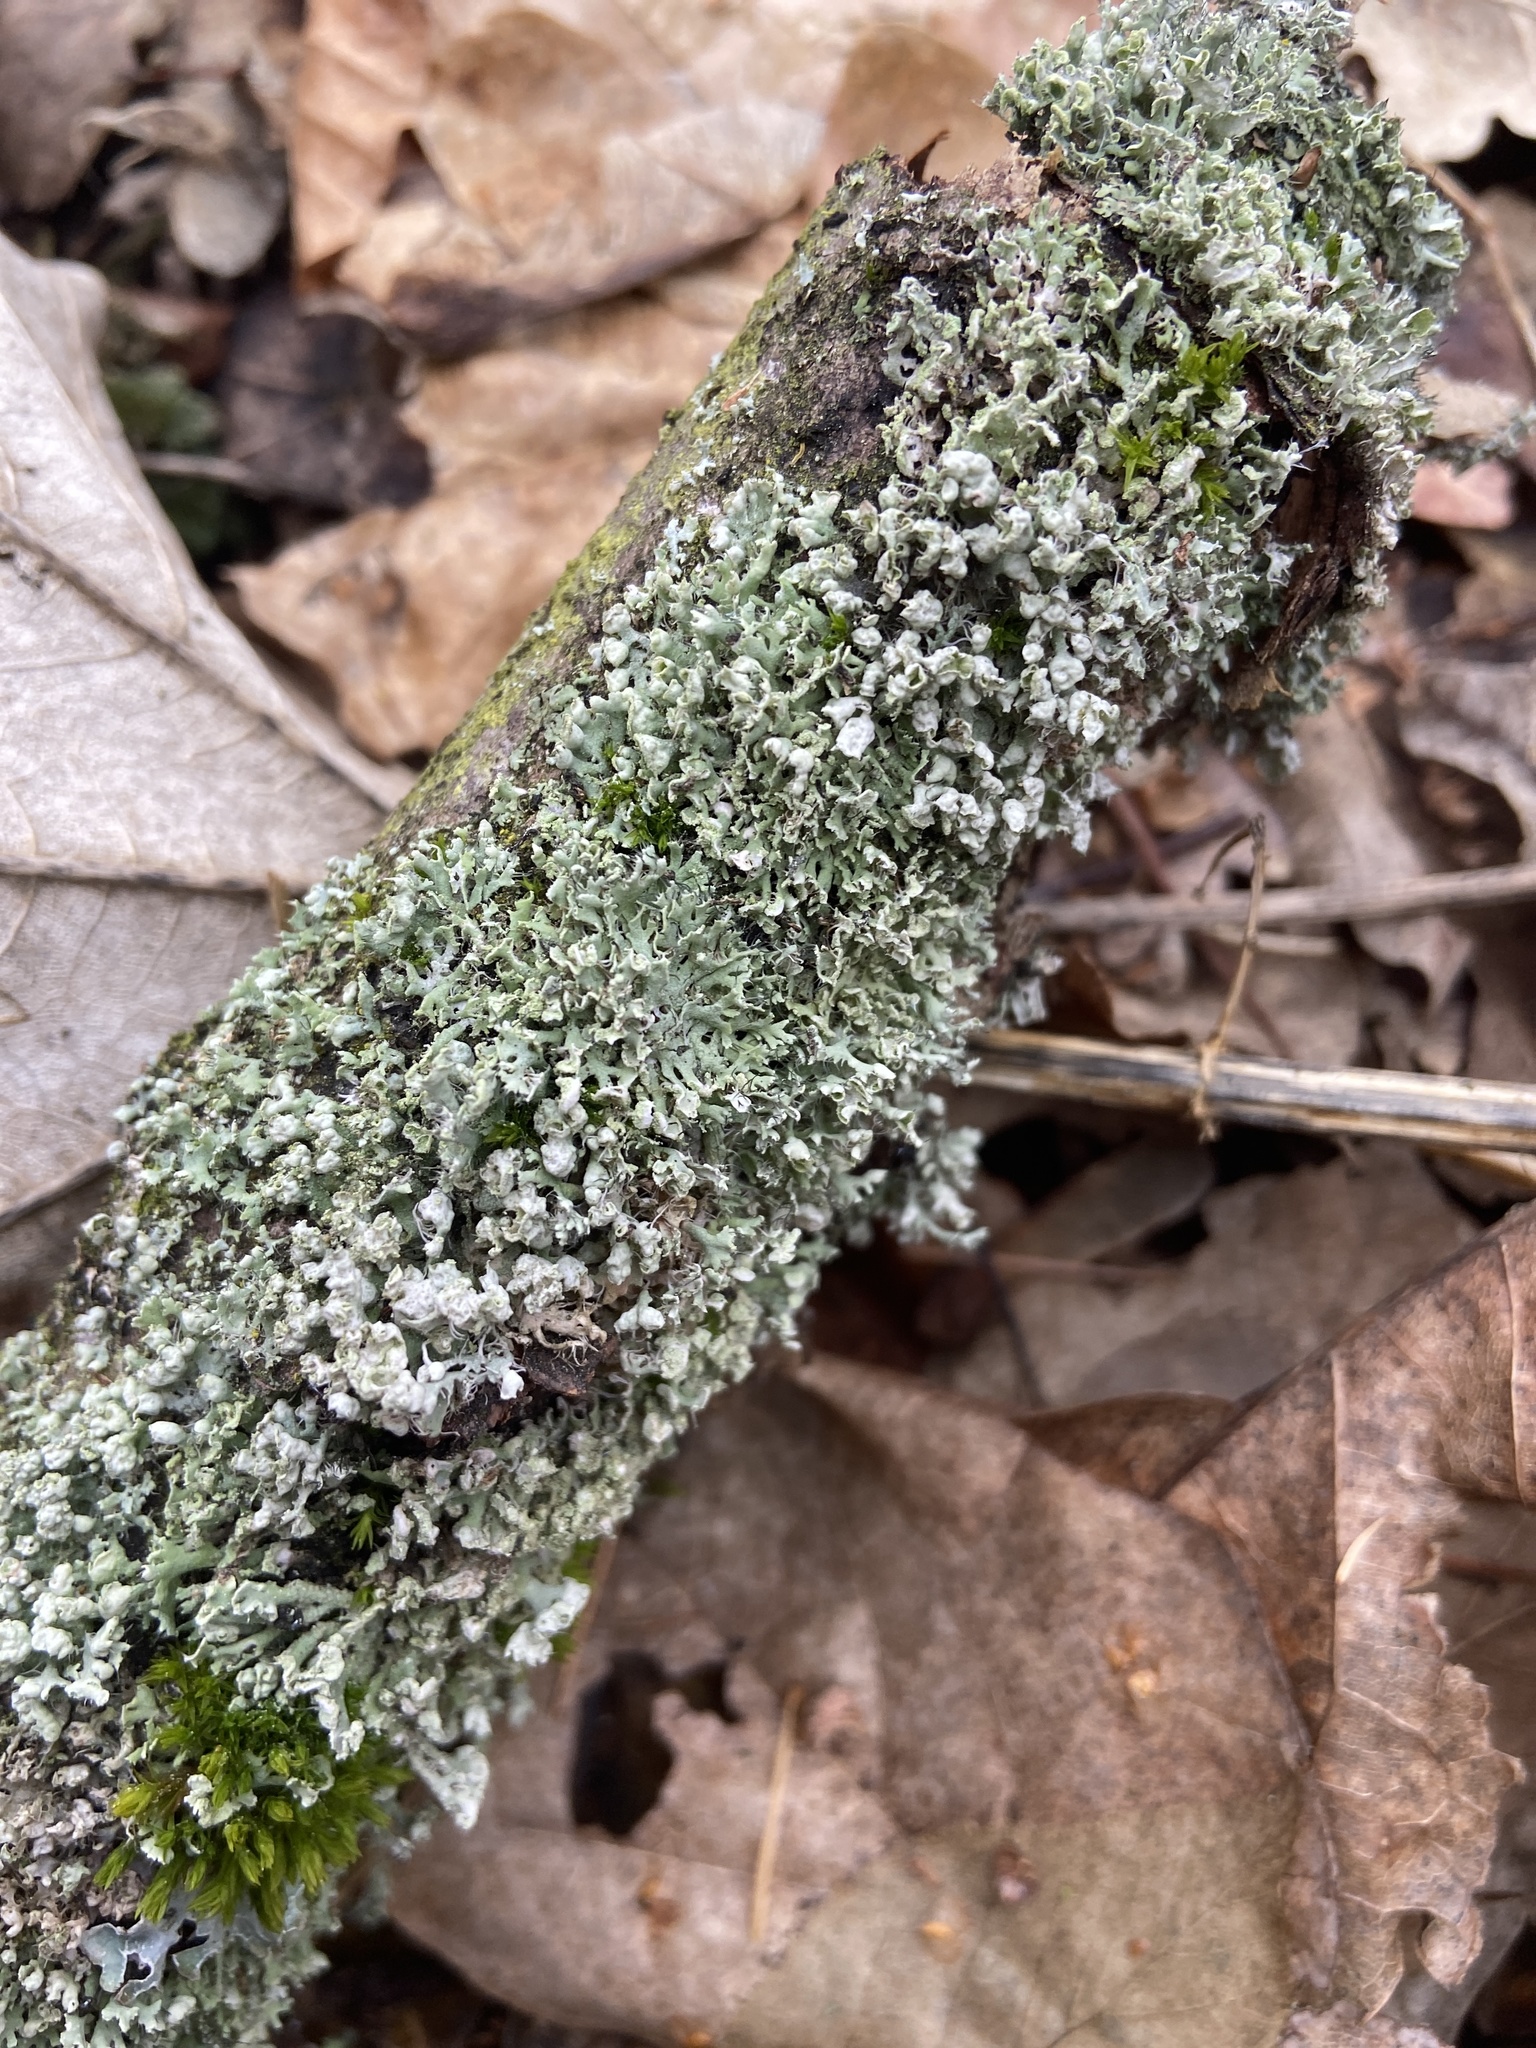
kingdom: Fungi
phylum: Ascomycota
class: Lecanoromycetes
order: Caliciales
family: Physciaceae
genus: Physcia
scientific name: Physcia adscendens
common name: Hooded rosette lichen
